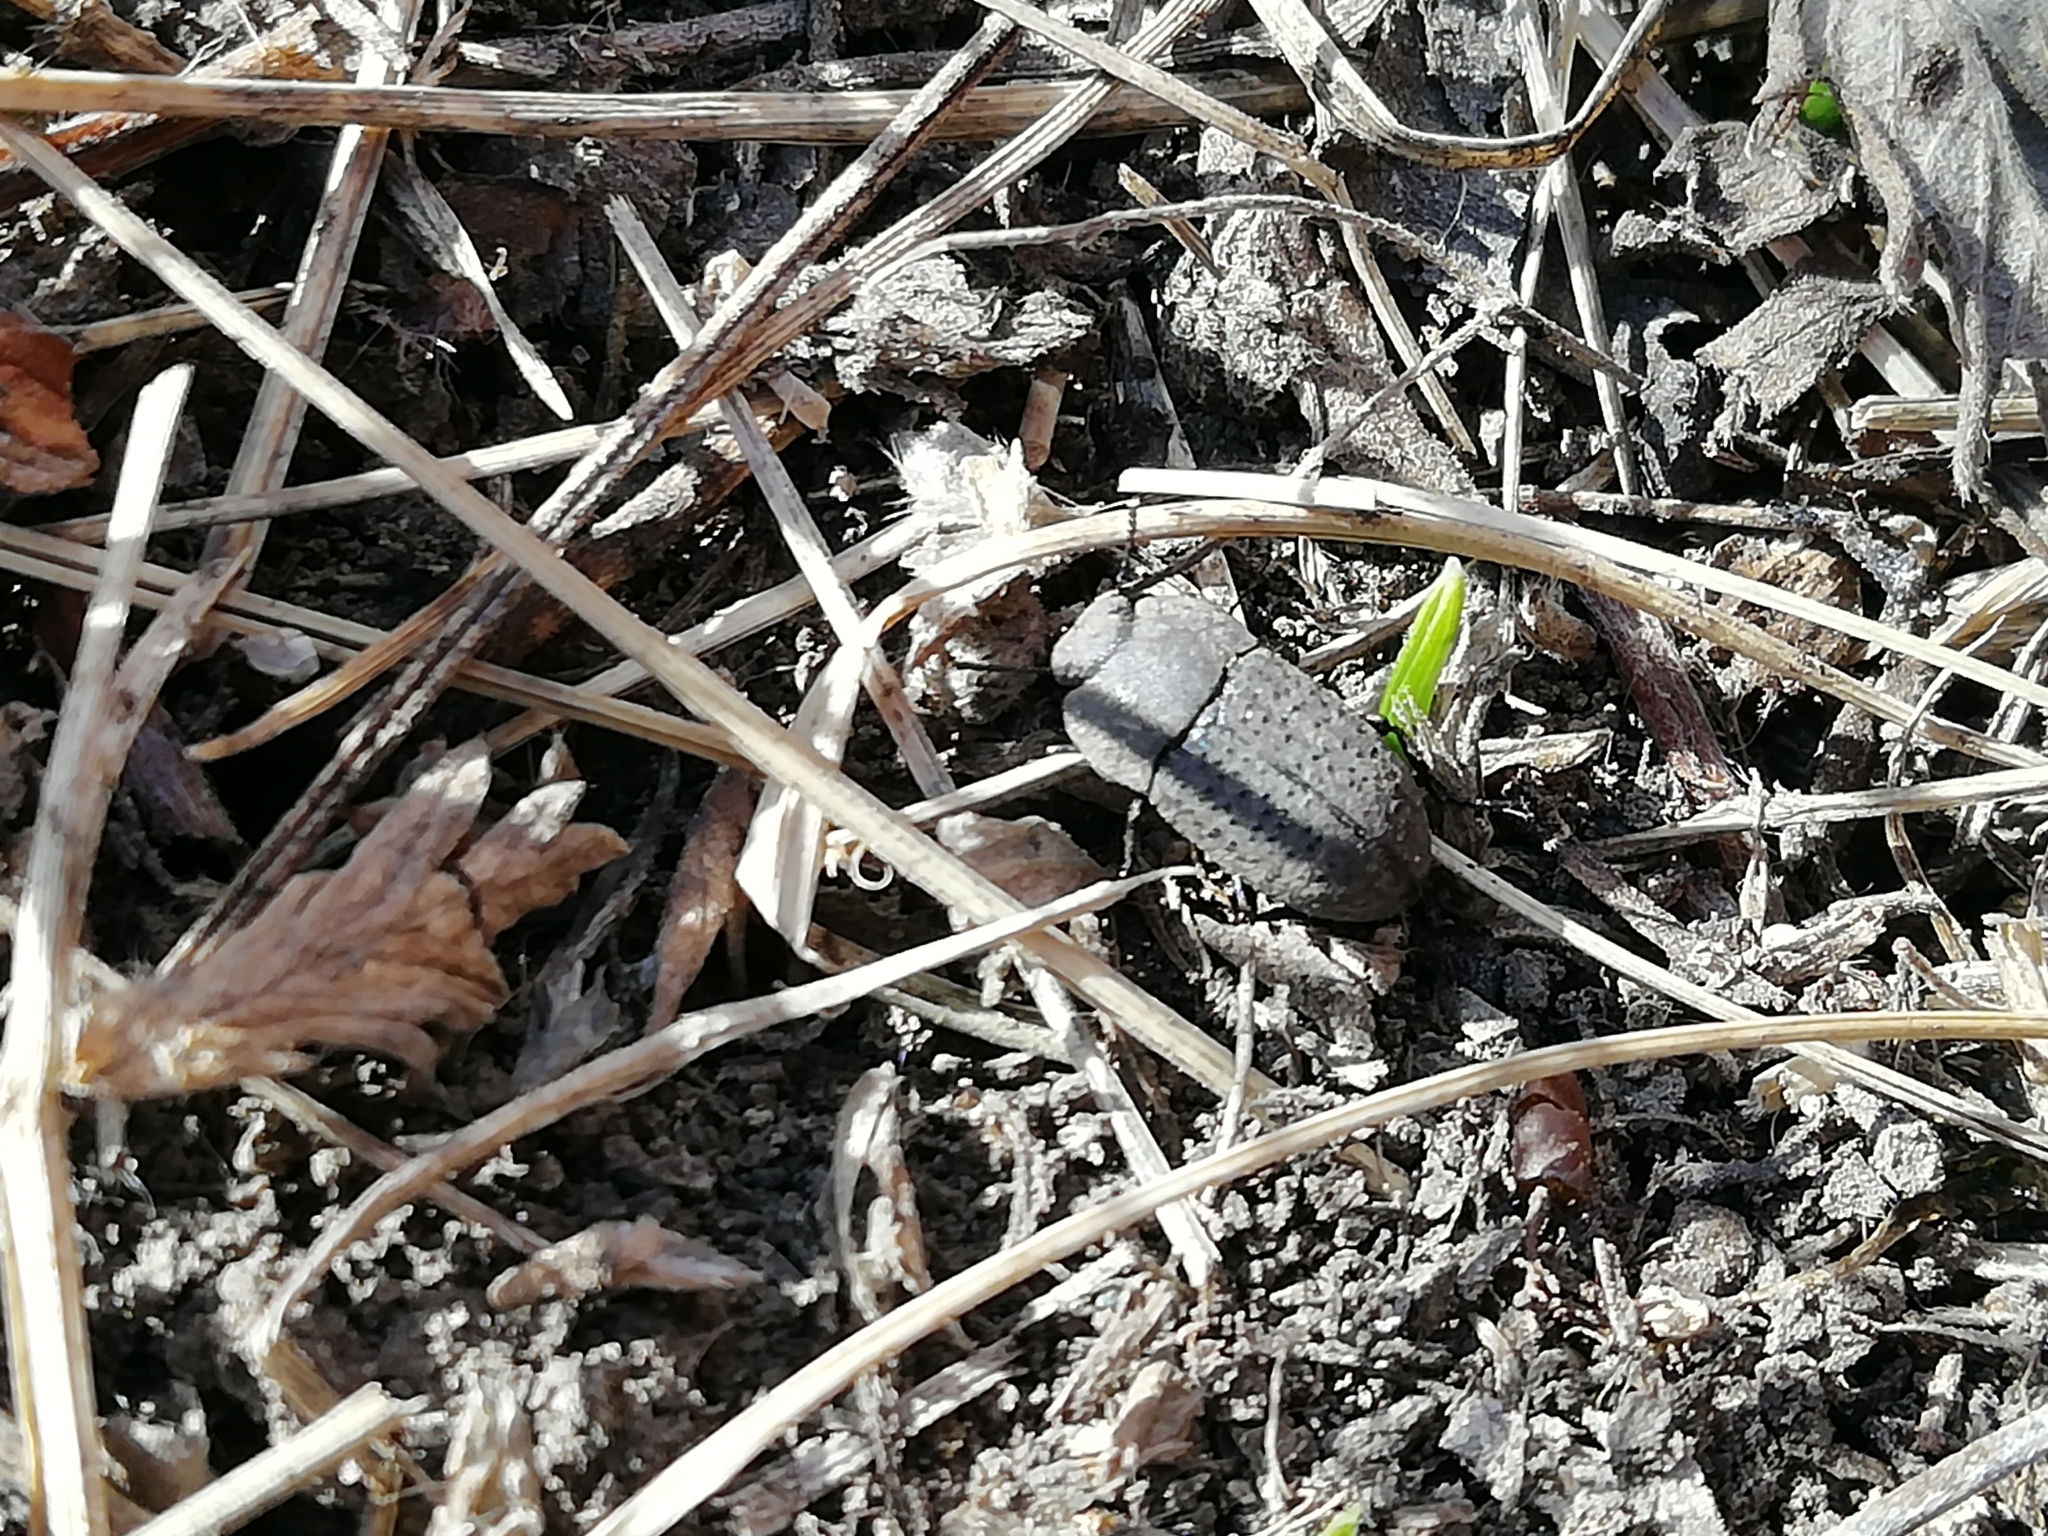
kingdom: Animalia
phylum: Arthropoda
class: Insecta
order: Coleoptera
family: Tenebrionidae
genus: Opatrum
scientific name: Opatrum sabulosum
